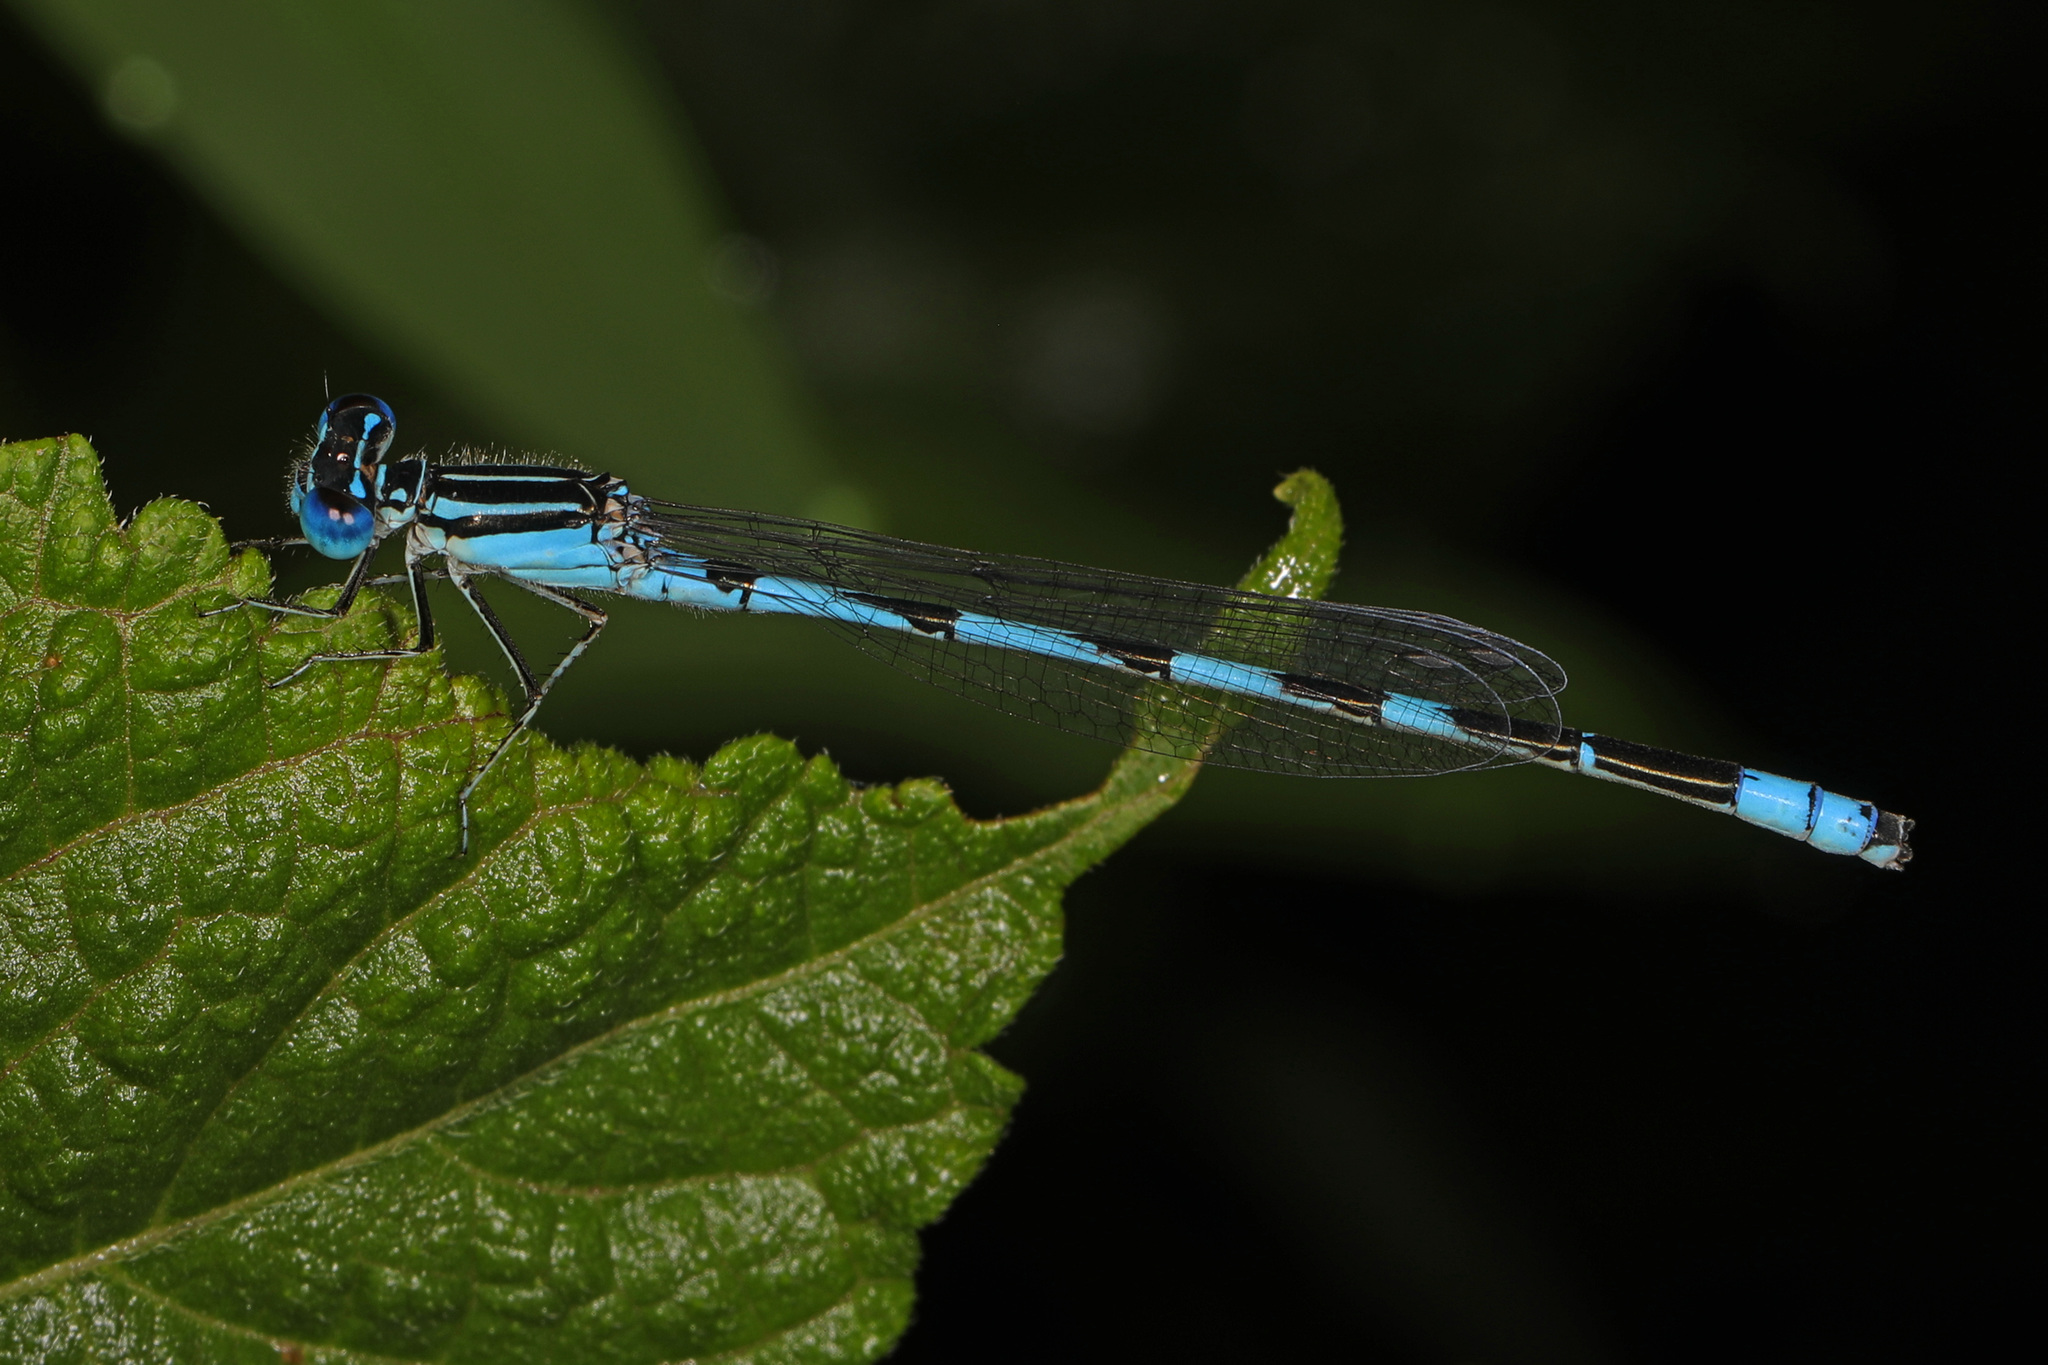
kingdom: Animalia
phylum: Arthropoda
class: Insecta
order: Odonata
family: Coenagrionidae
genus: Enallagma
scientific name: Enallagma durum
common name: Big bluet
